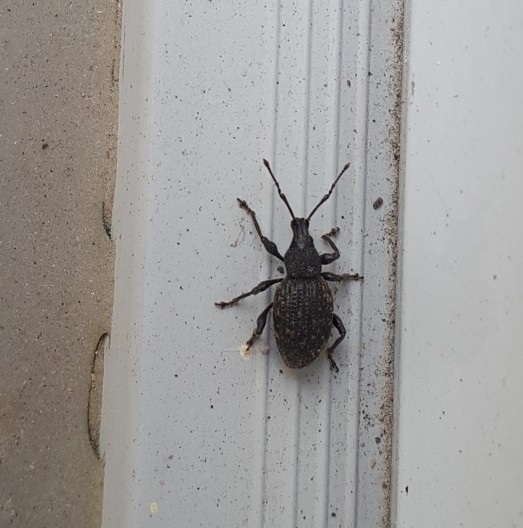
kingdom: Animalia
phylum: Arthropoda
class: Insecta
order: Coleoptera
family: Curculionidae
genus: Otiorhynchus
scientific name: Otiorhynchus sulcatus
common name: Black vine weevil
